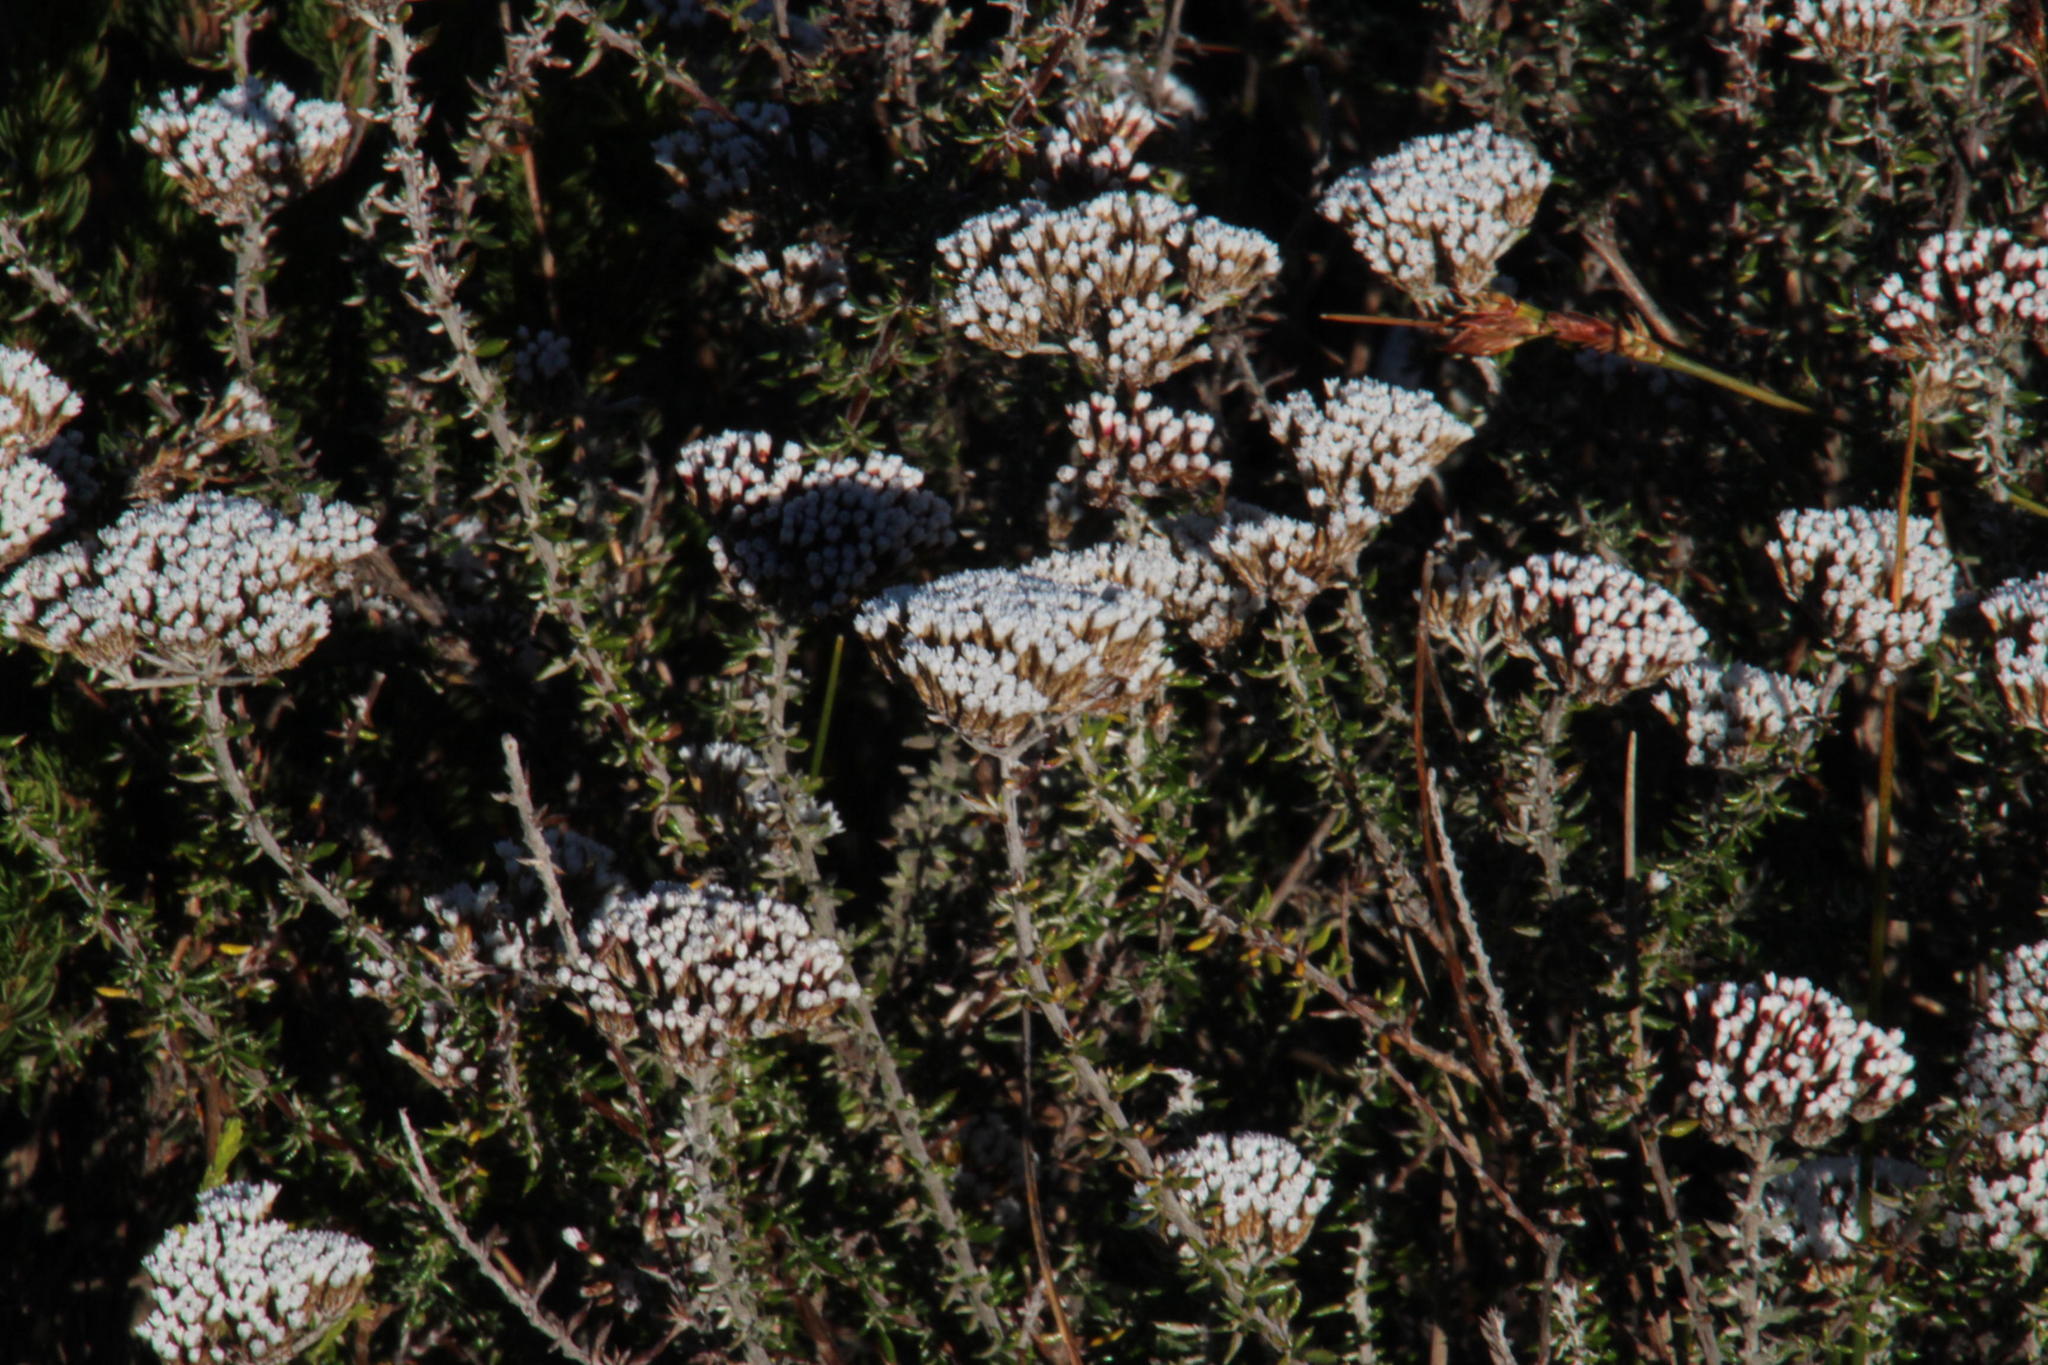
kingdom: Plantae
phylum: Tracheophyta
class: Magnoliopsida
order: Asterales
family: Asteraceae
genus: Metalasia
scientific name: Metalasia densa
